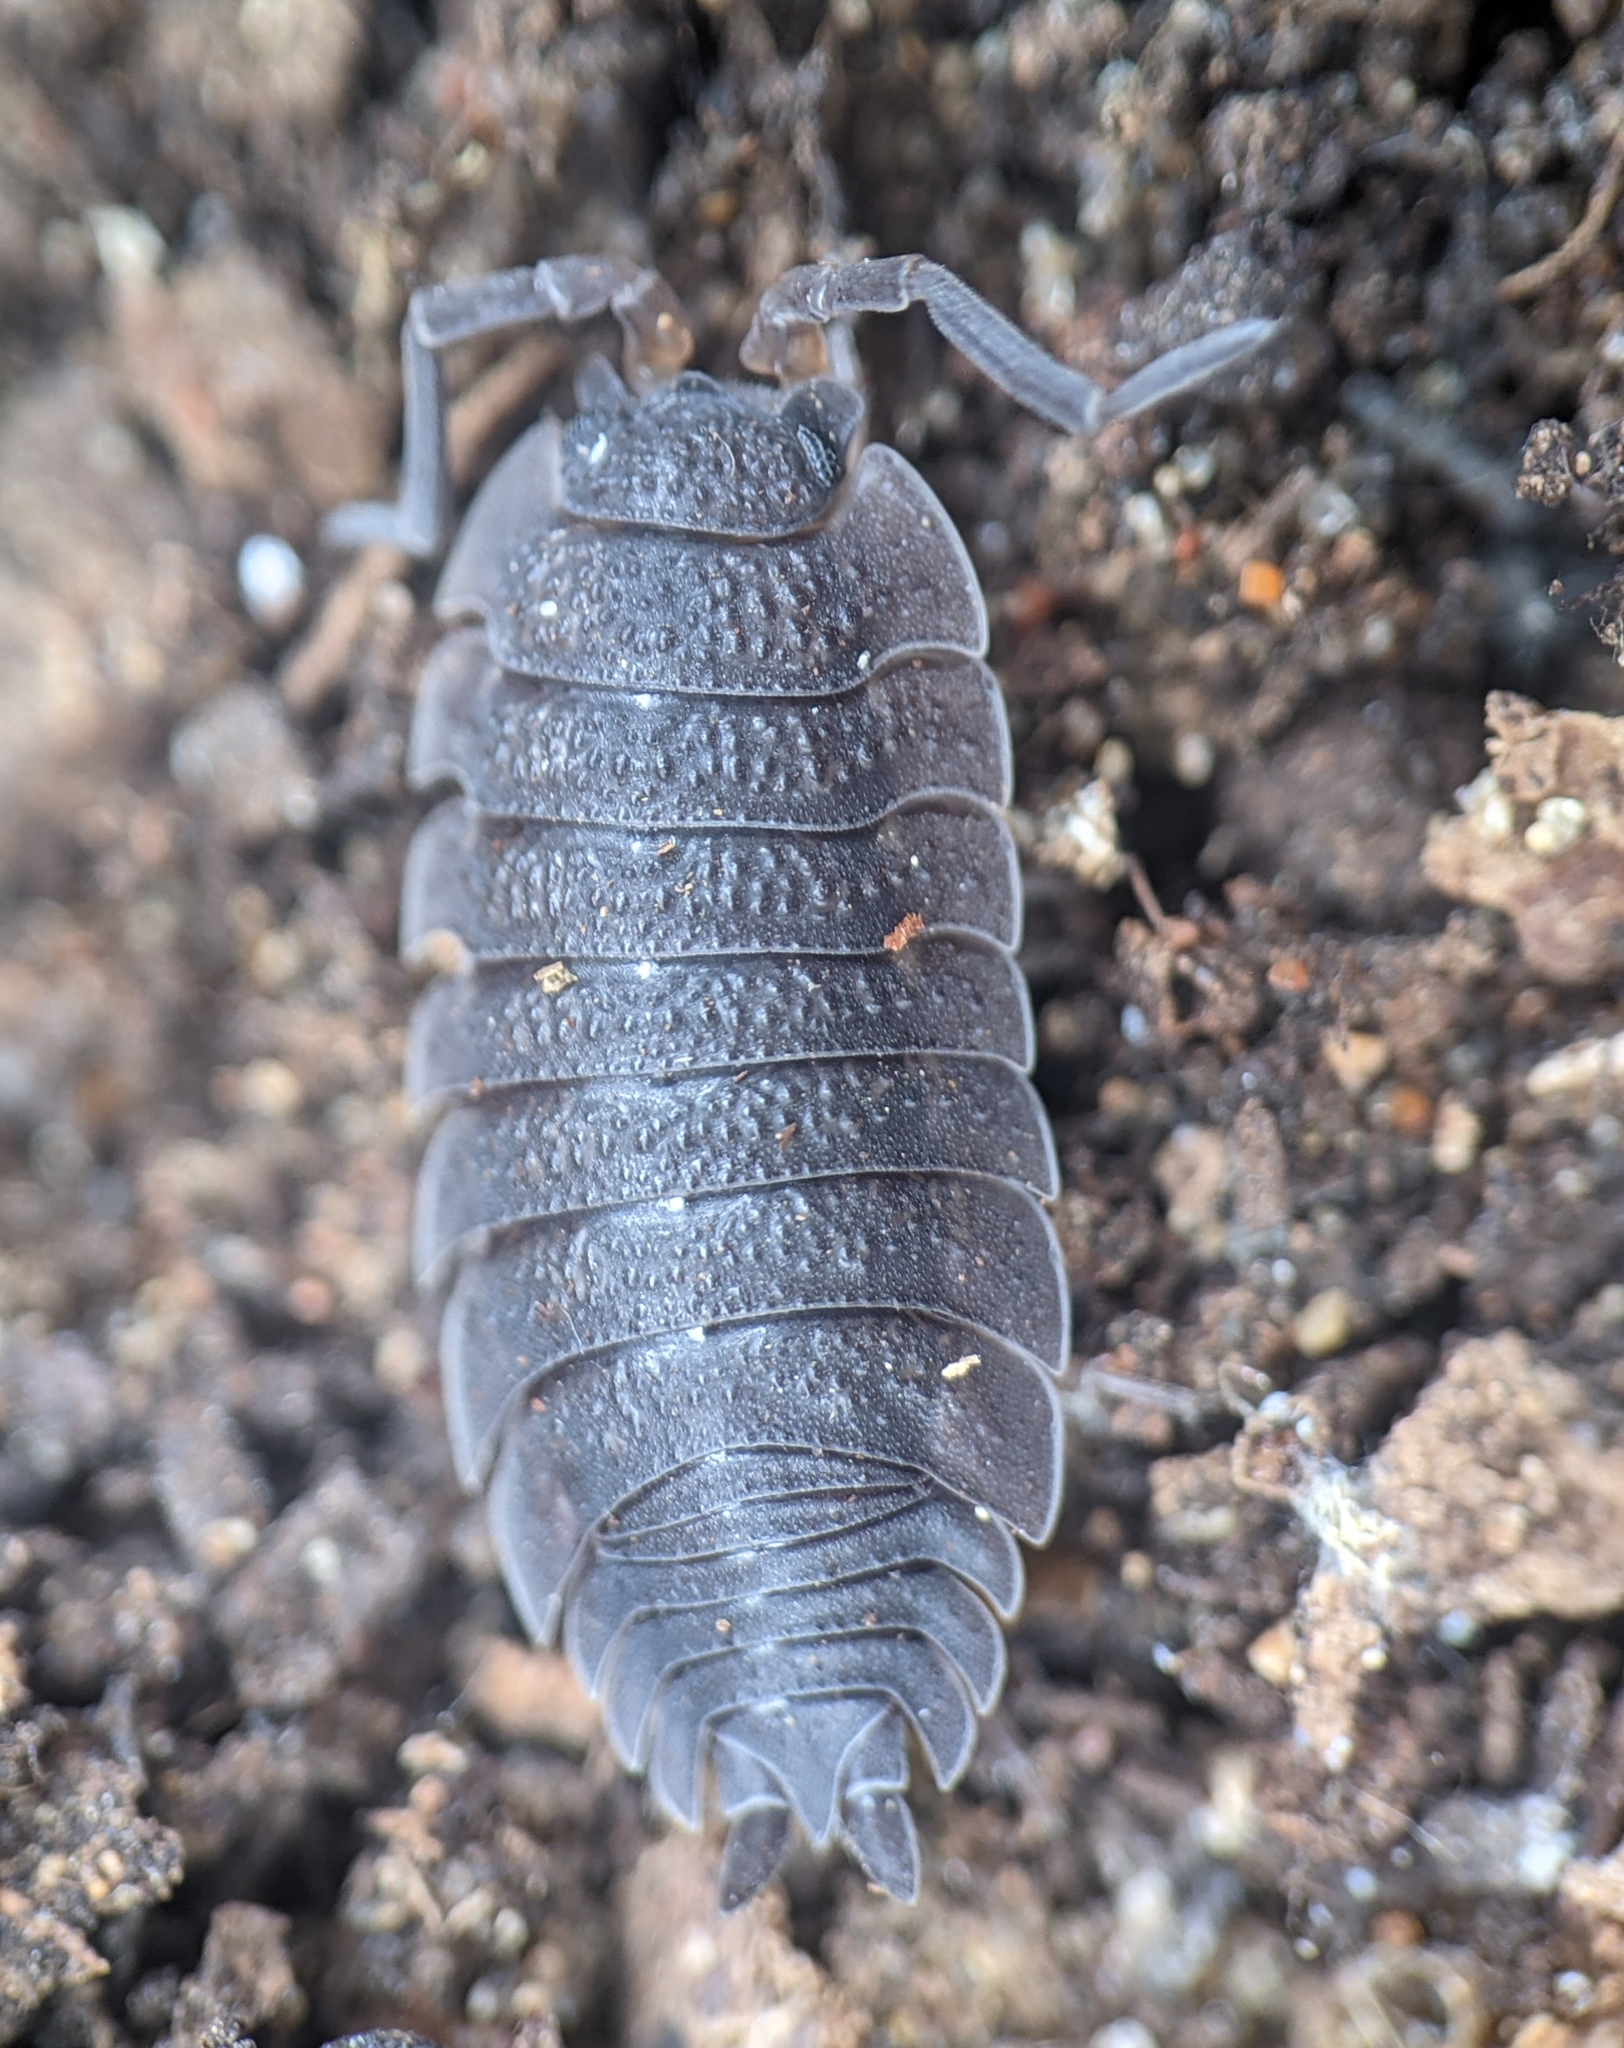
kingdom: Animalia
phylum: Arthropoda
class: Malacostraca
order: Isopoda
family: Porcellionidae
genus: Porcellio
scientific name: Porcellio scaber
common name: Common rough woodlouse
